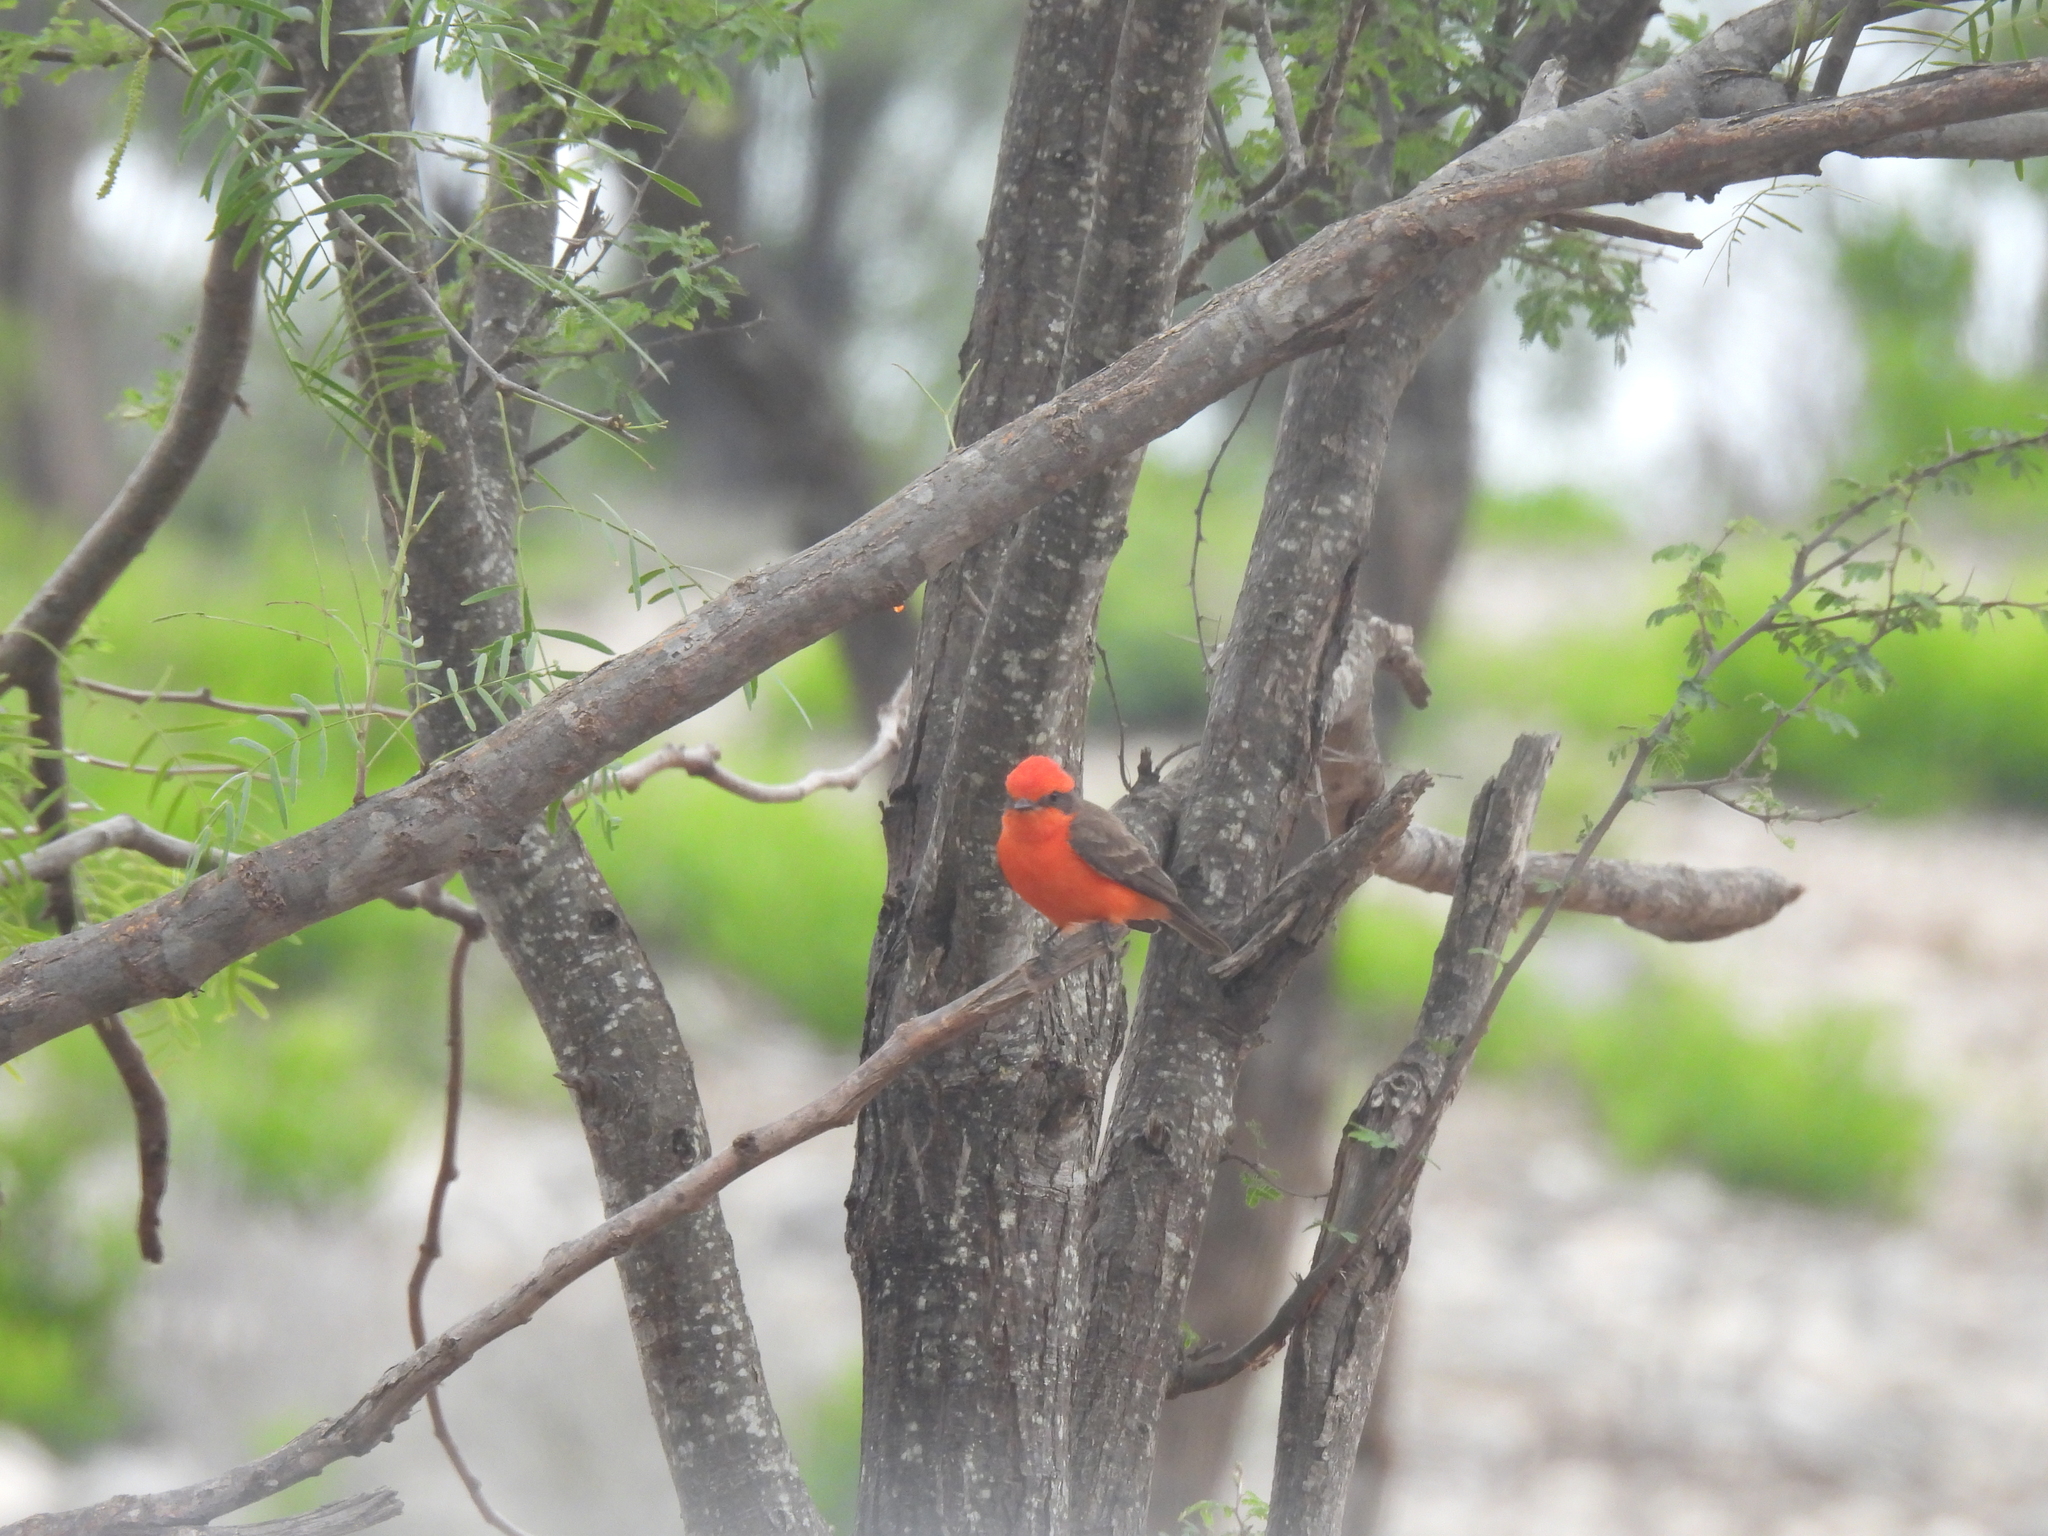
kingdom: Animalia
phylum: Chordata
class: Aves
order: Passeriformes
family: Tyrannidae
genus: Pyrocephalus
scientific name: Pyrocephalus rubinus
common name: Vermilion flycatcher
